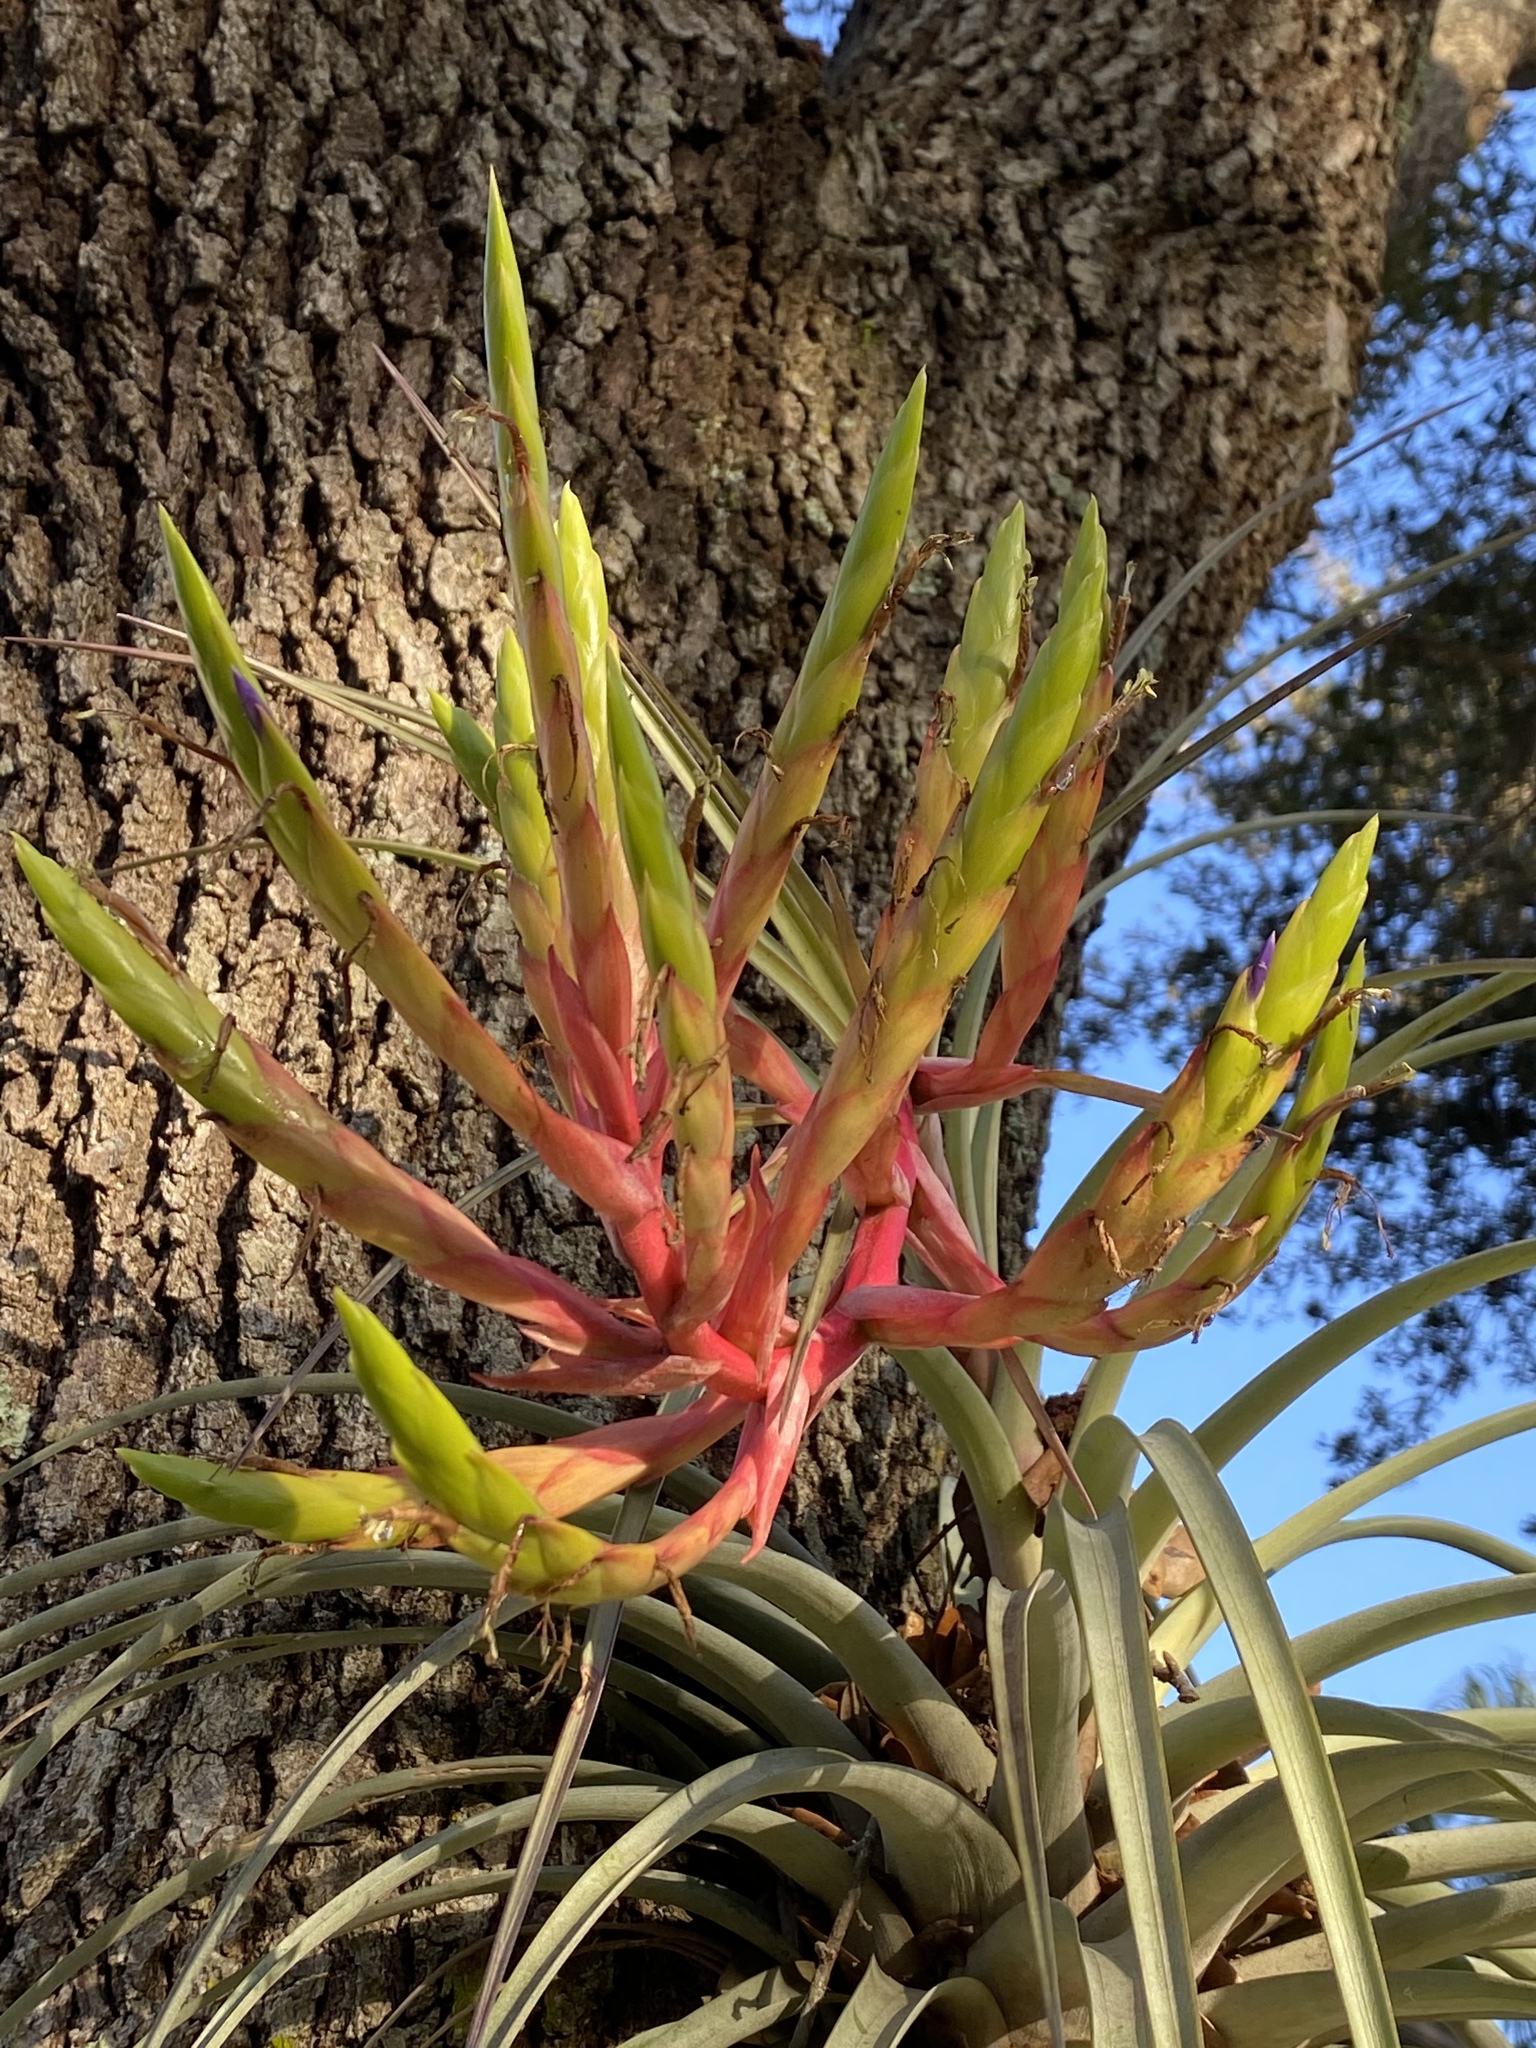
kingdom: Plantae
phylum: Tracheophyta
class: Liliopsida
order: Poales
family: Bromeliaceae
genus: Tillandsia
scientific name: Tillandsia fasciculata
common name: Giant airplant
